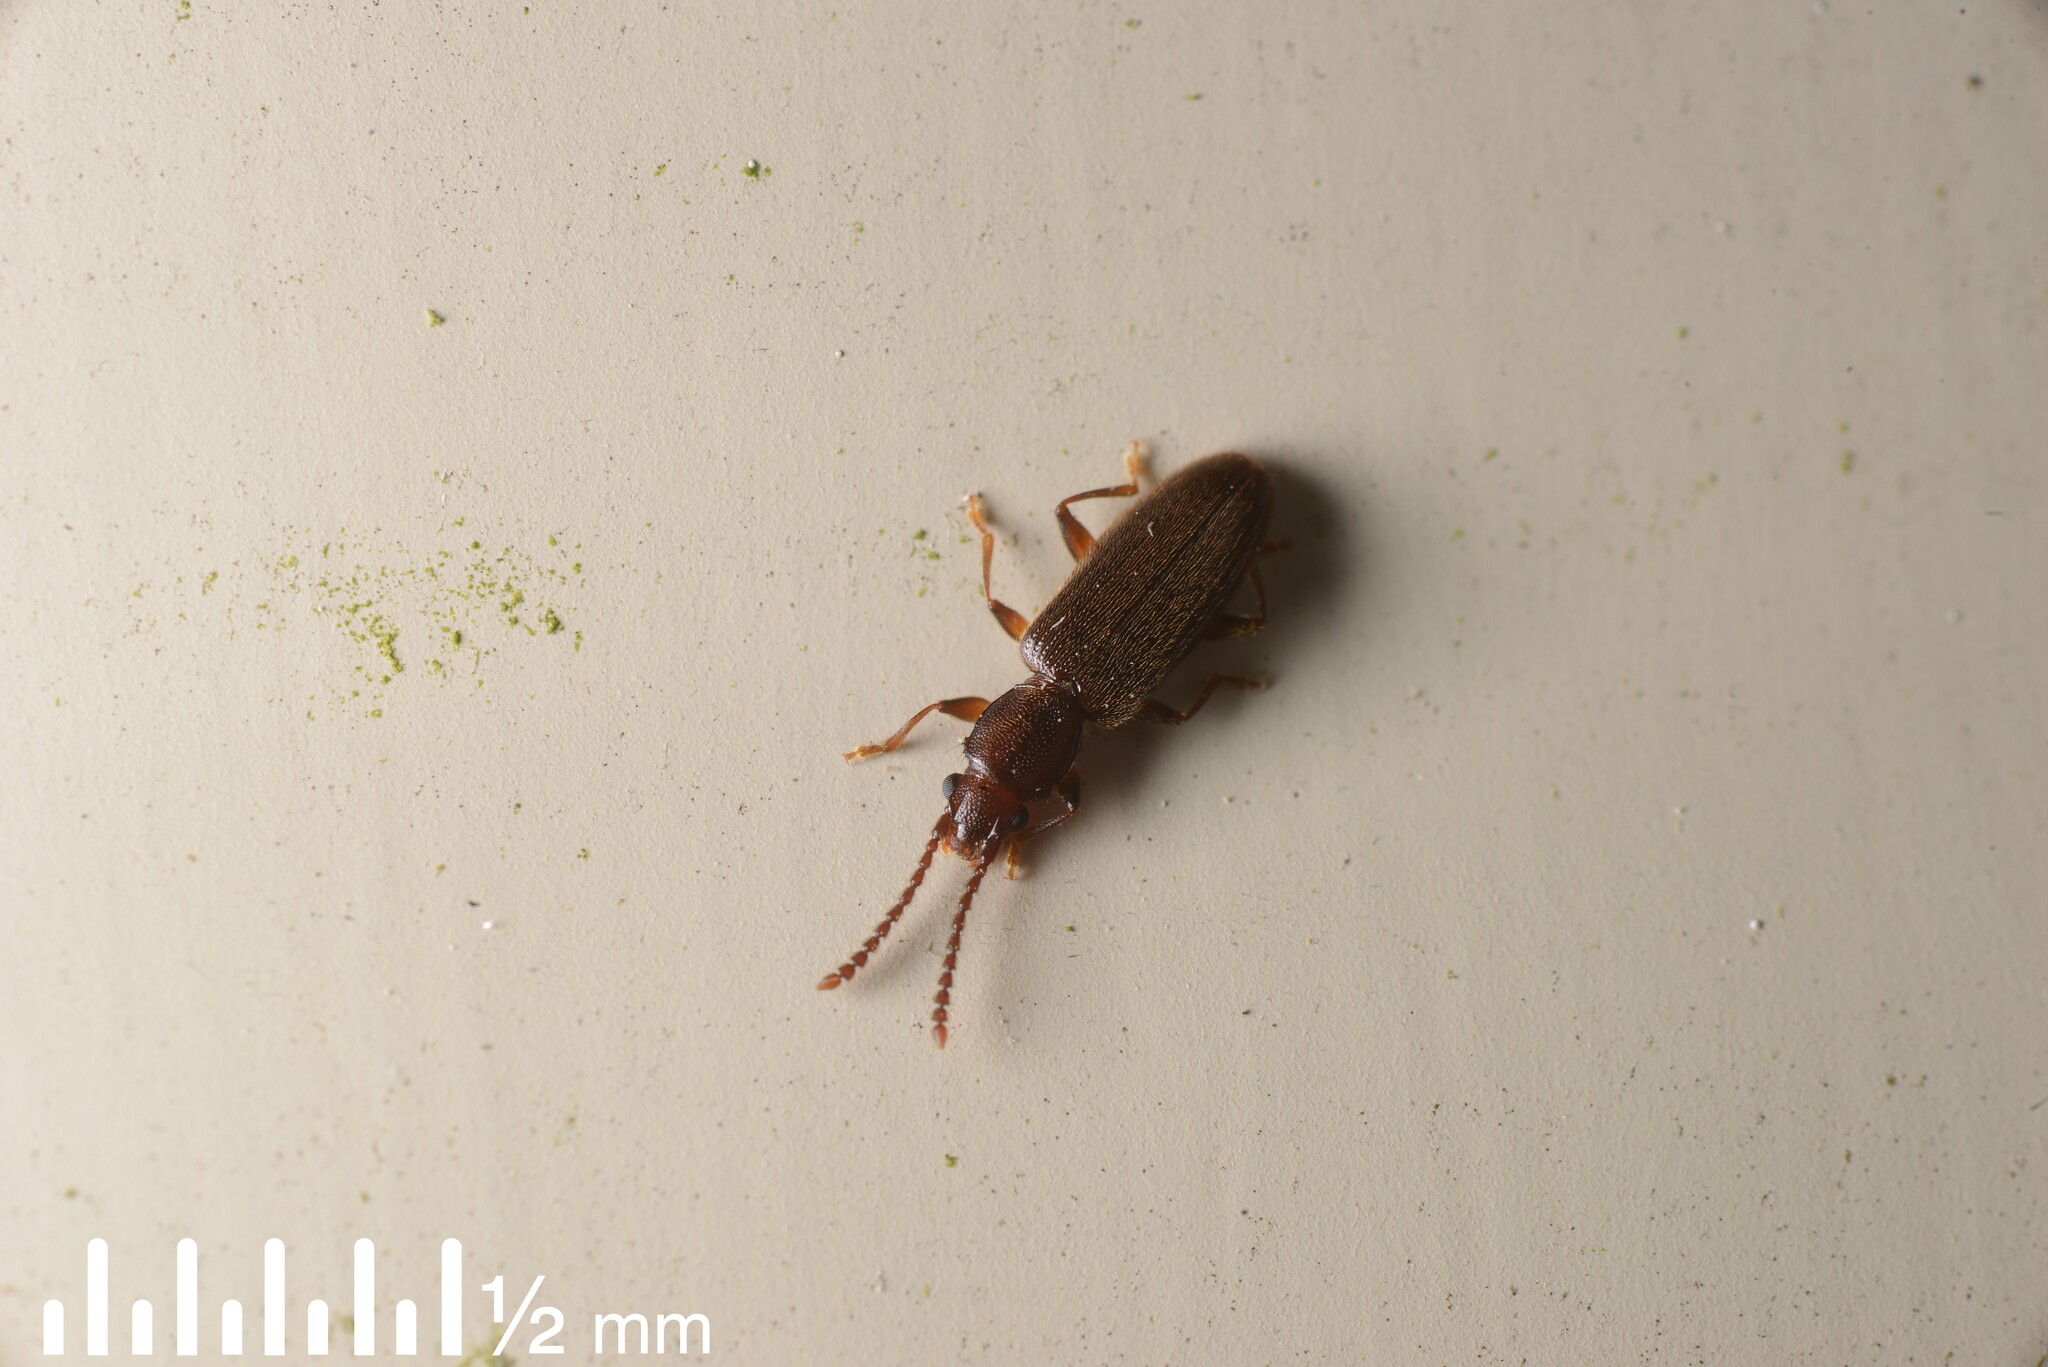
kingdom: Animalia
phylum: Arthropoda
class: Insecta
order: Coleoptera
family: Silvanidae
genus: Cryptamorpha
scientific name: Cryptamorpha brevicornis
